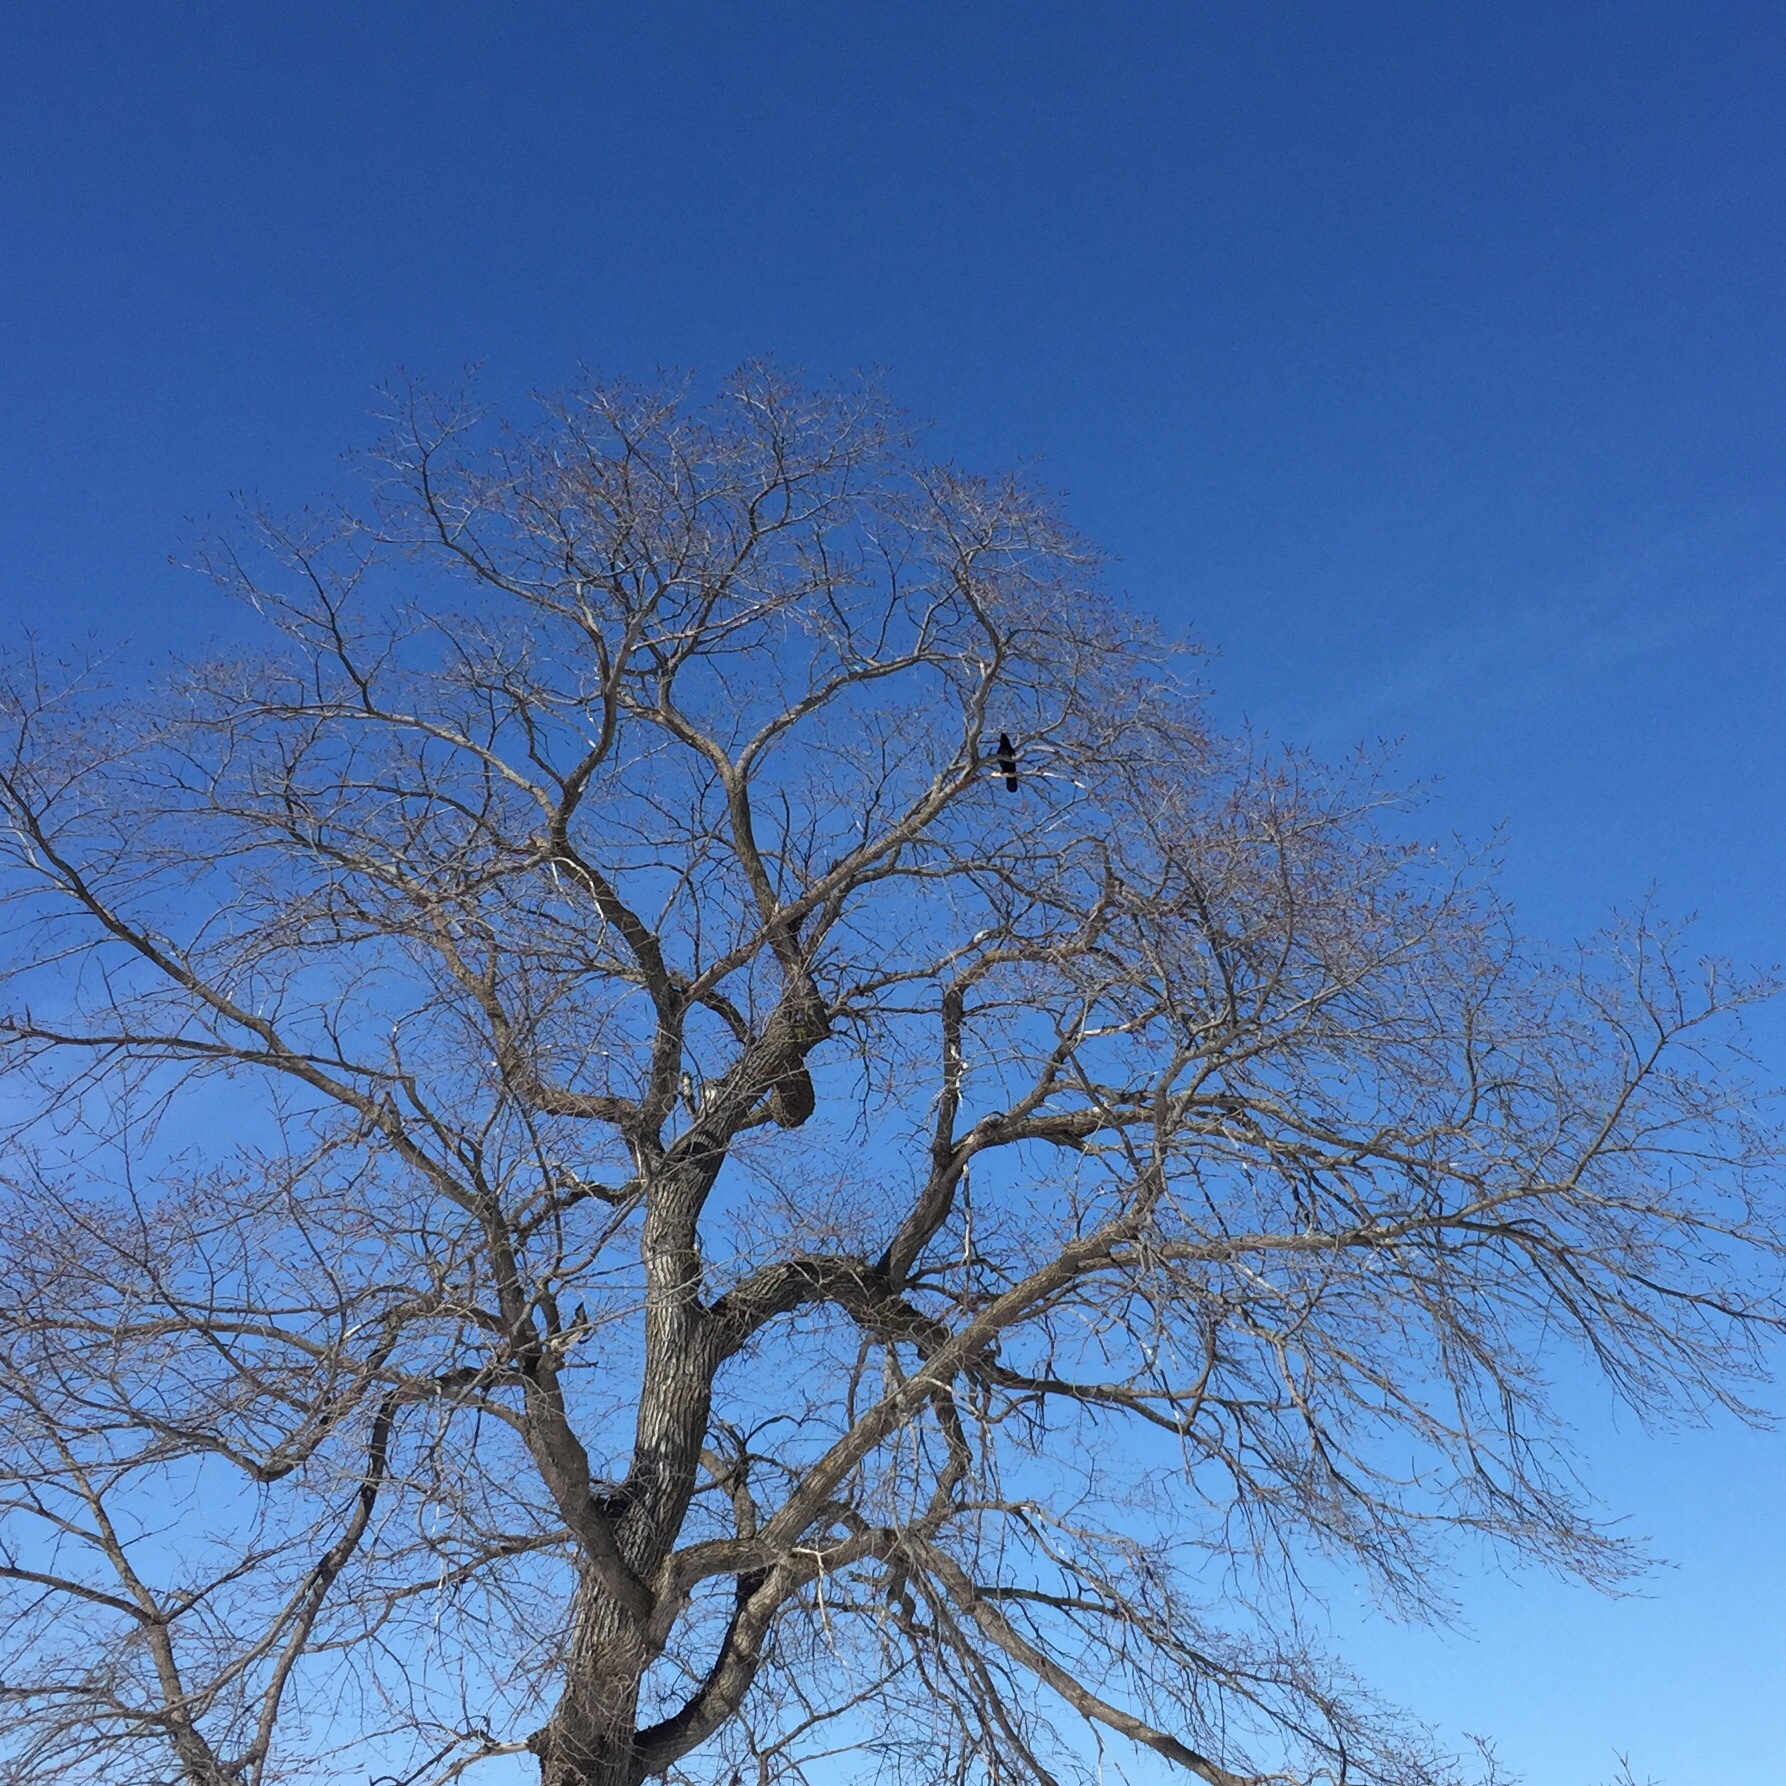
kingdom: Animalia
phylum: Chordata
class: Aves
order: Passeriformes
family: Corvidae
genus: Corvus
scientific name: Corvus brachyrhynchos
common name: American crow
